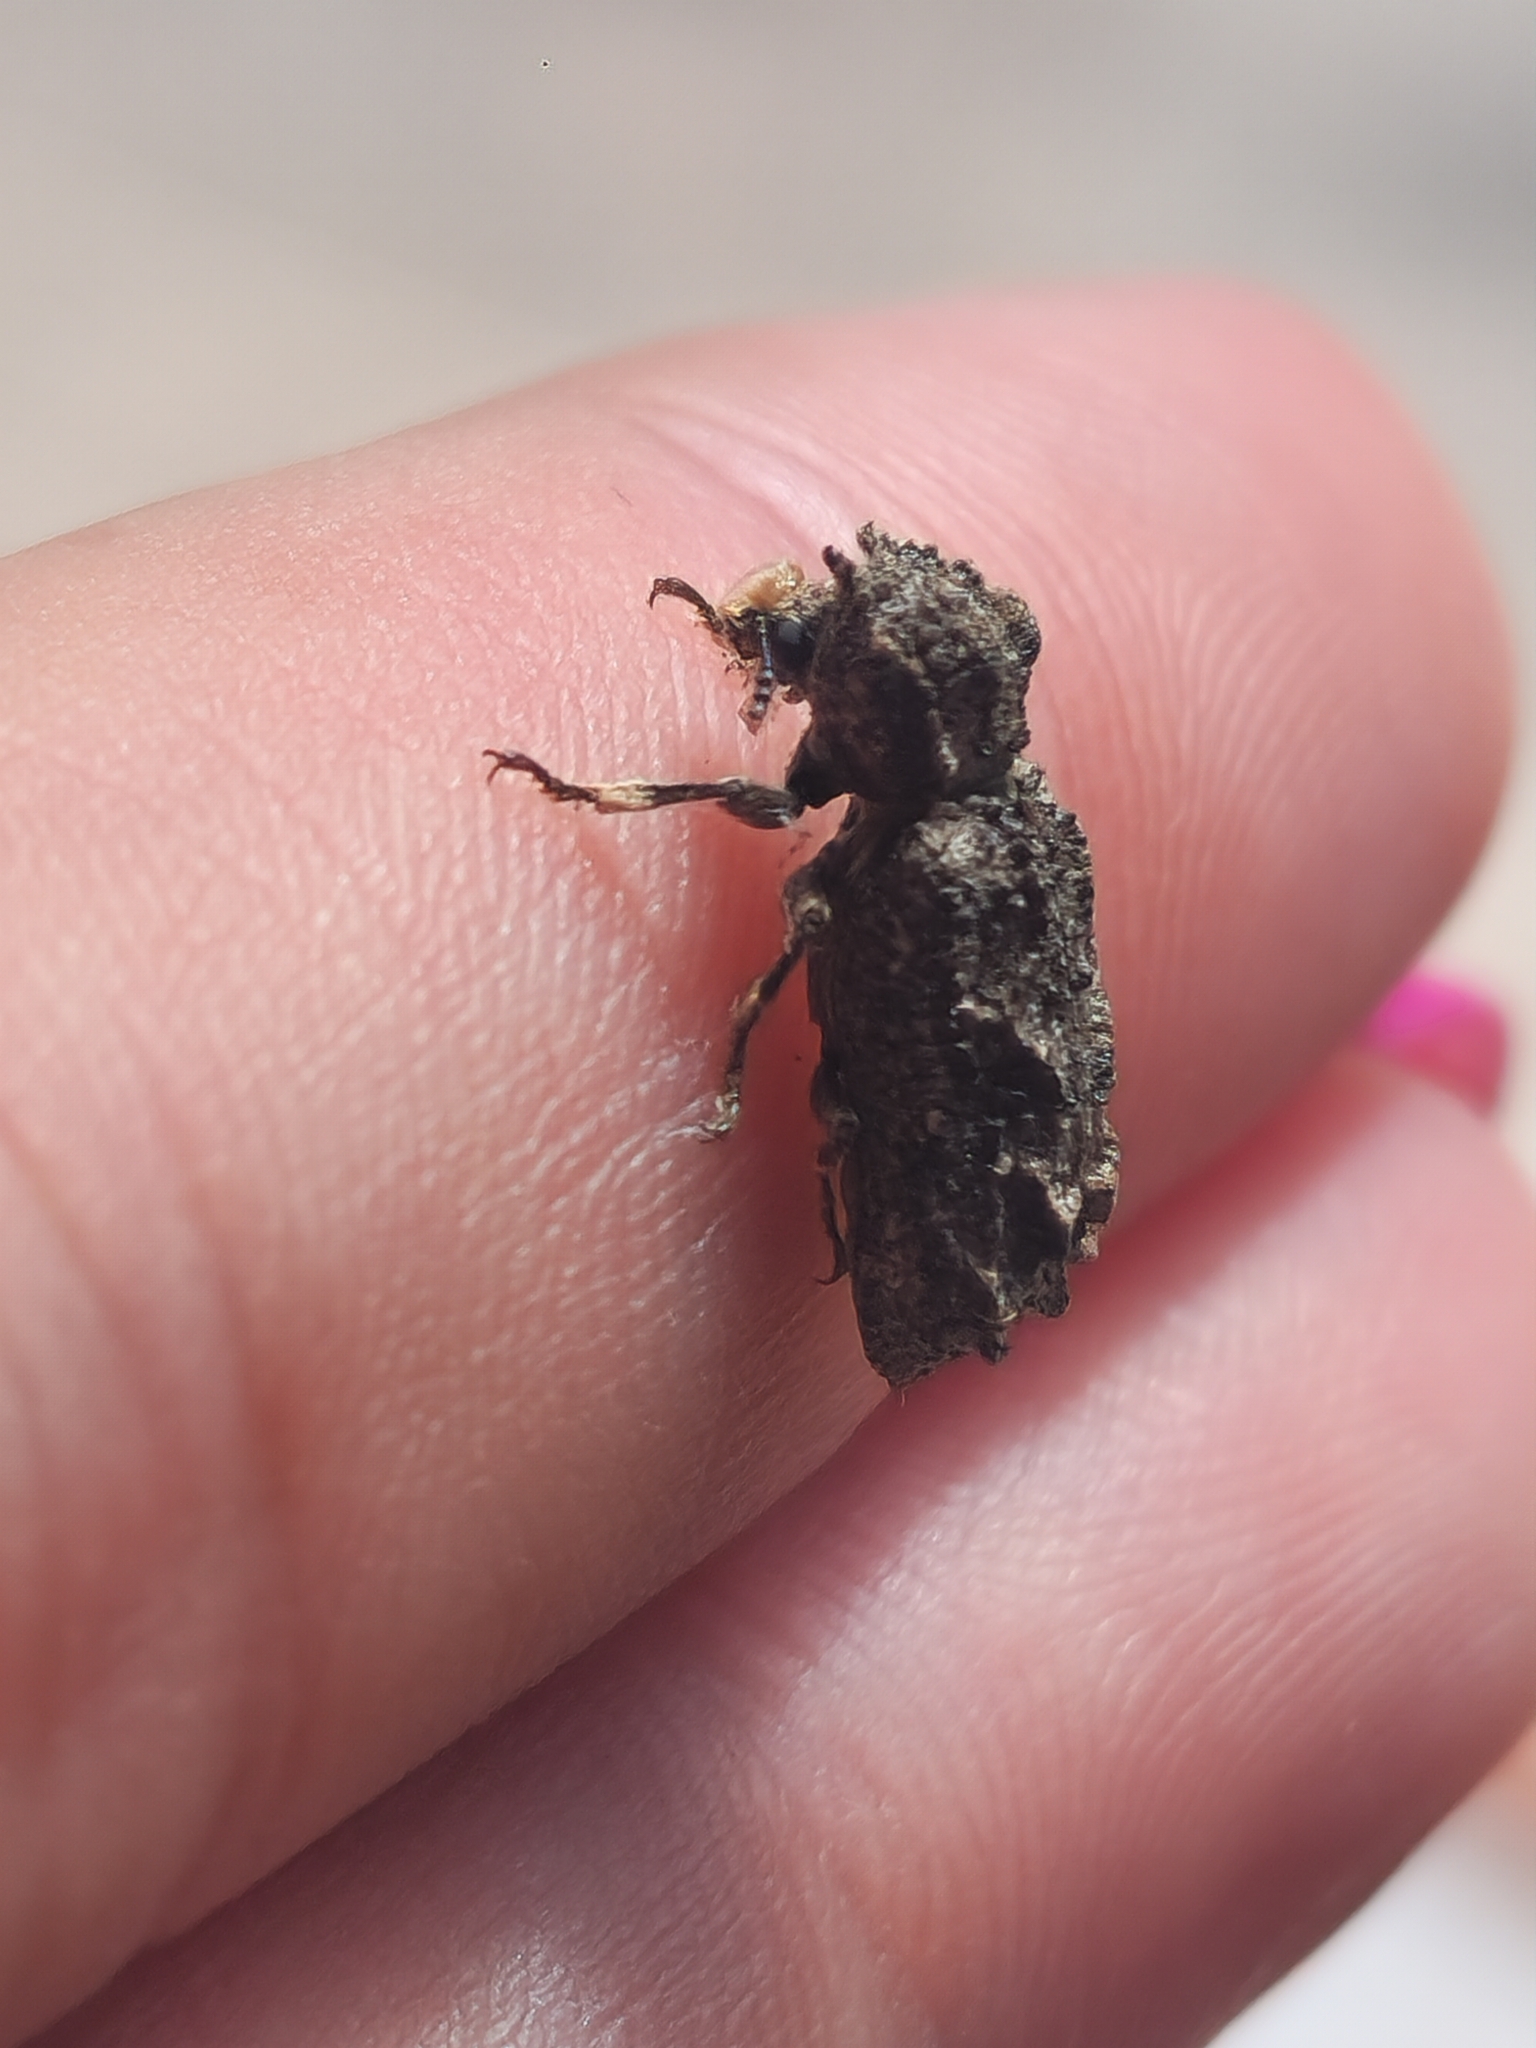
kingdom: Animalia
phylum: Arthropoda
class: Insecta
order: Coleoptera
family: Bostrichidae
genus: Lichenophanes
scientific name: Lichenophanes plicatus
